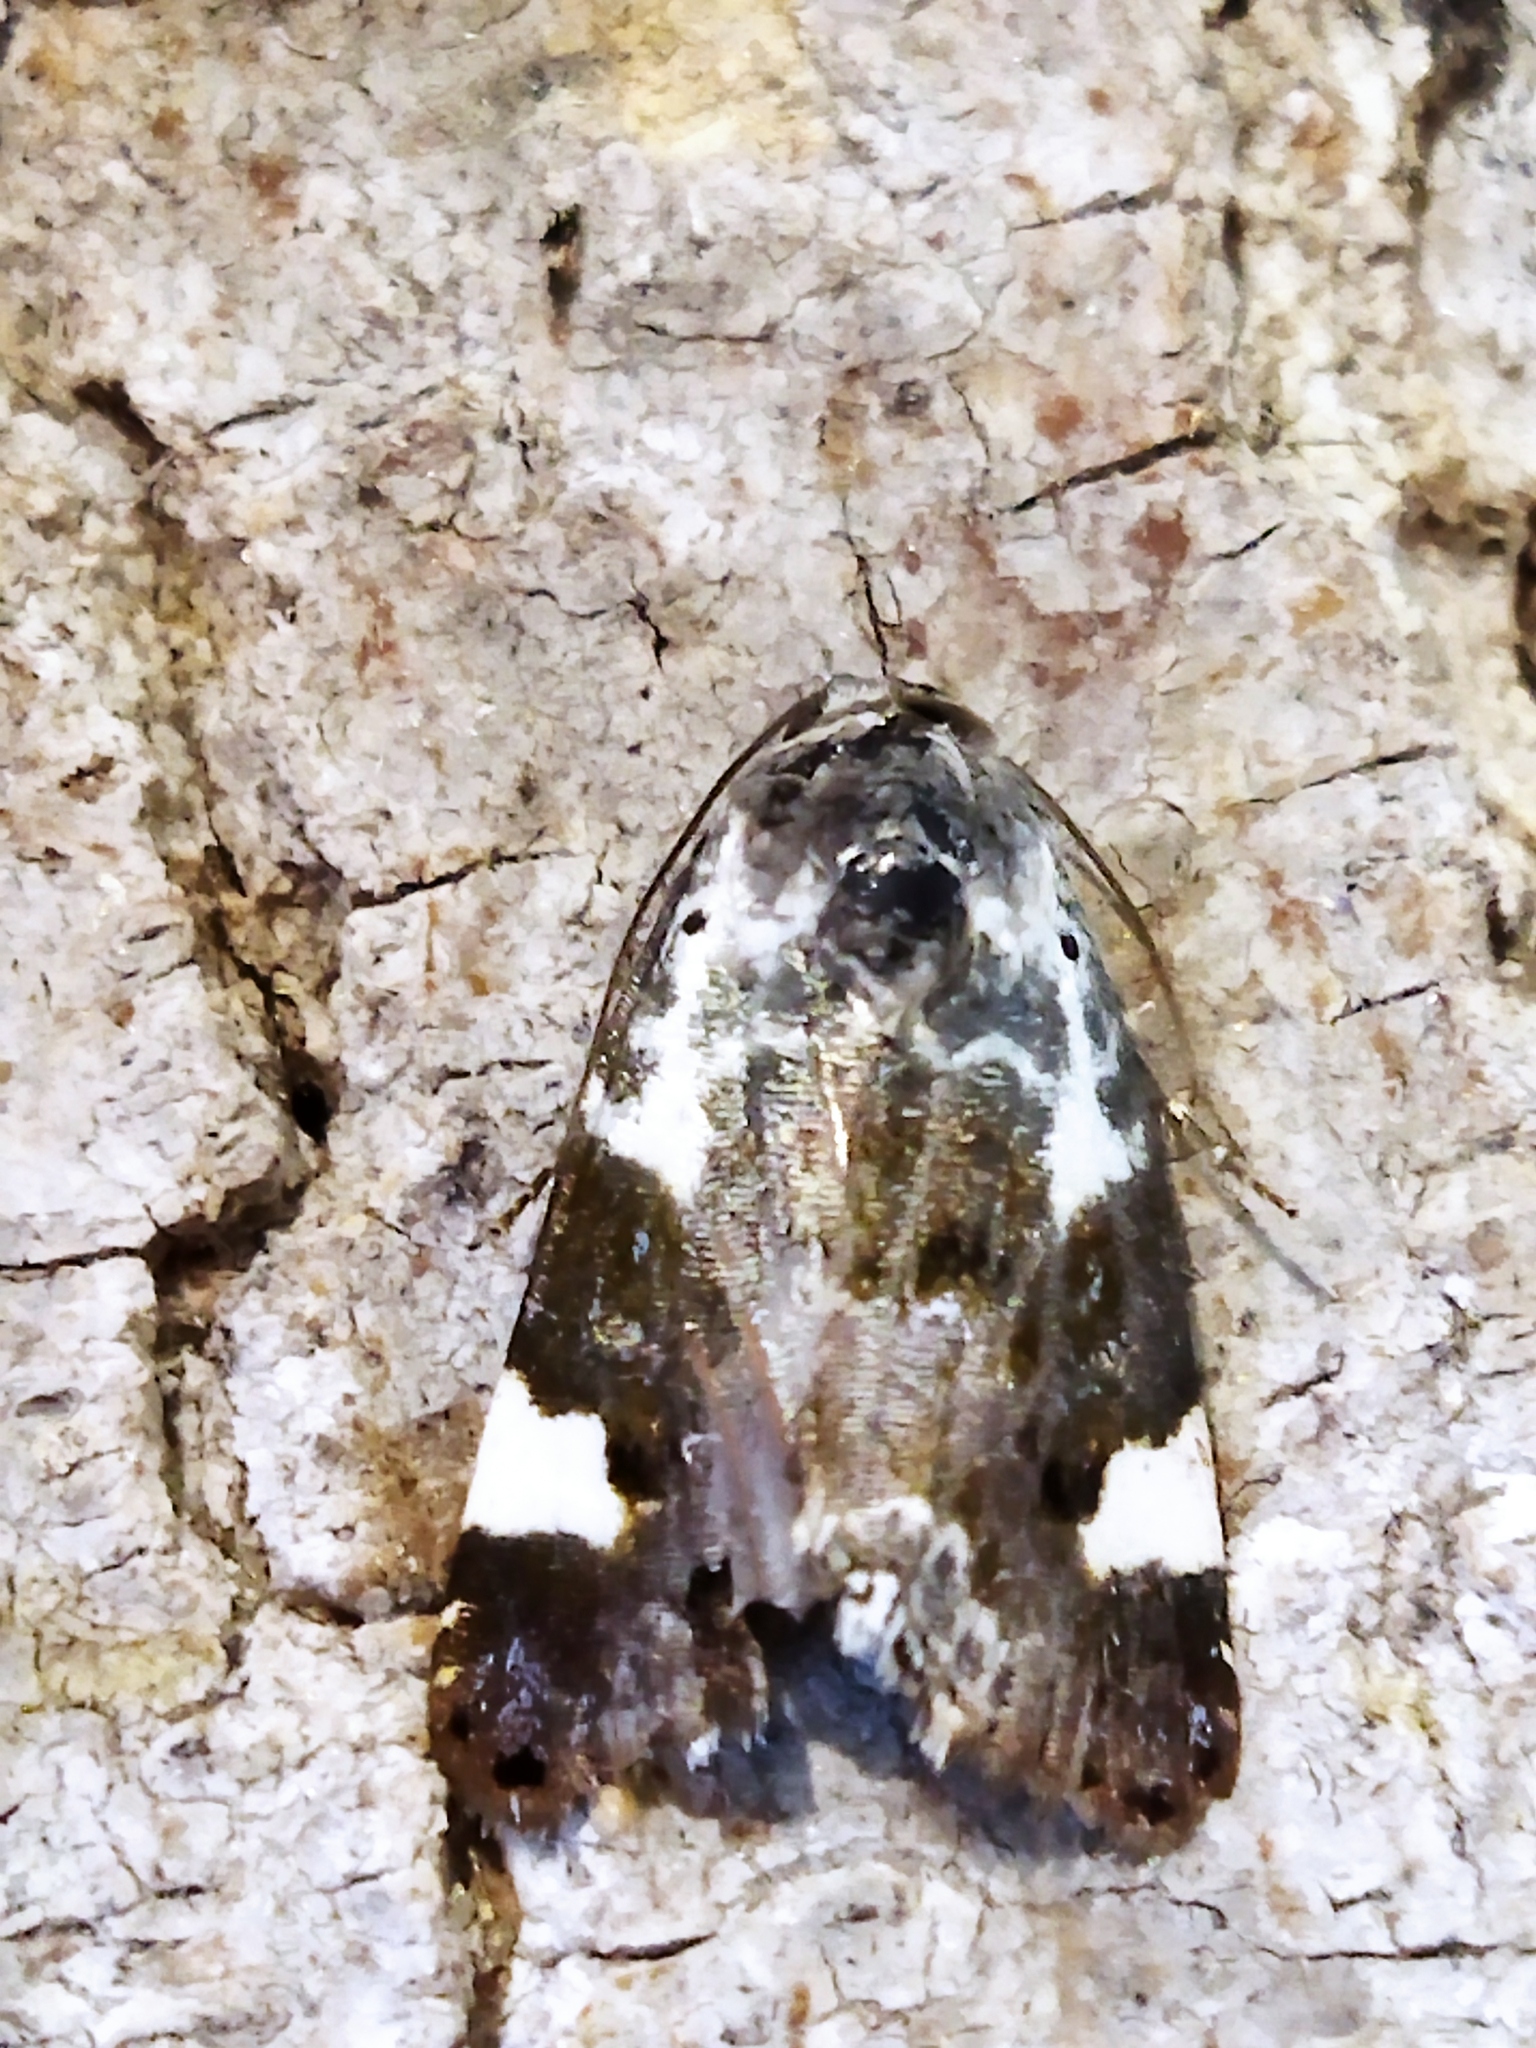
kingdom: Animalia
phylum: Arthropoda
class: Insecta
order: Lepidoptera
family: Noctuidae
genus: Acontia
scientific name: Acontia lucida
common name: Pale shoulder
